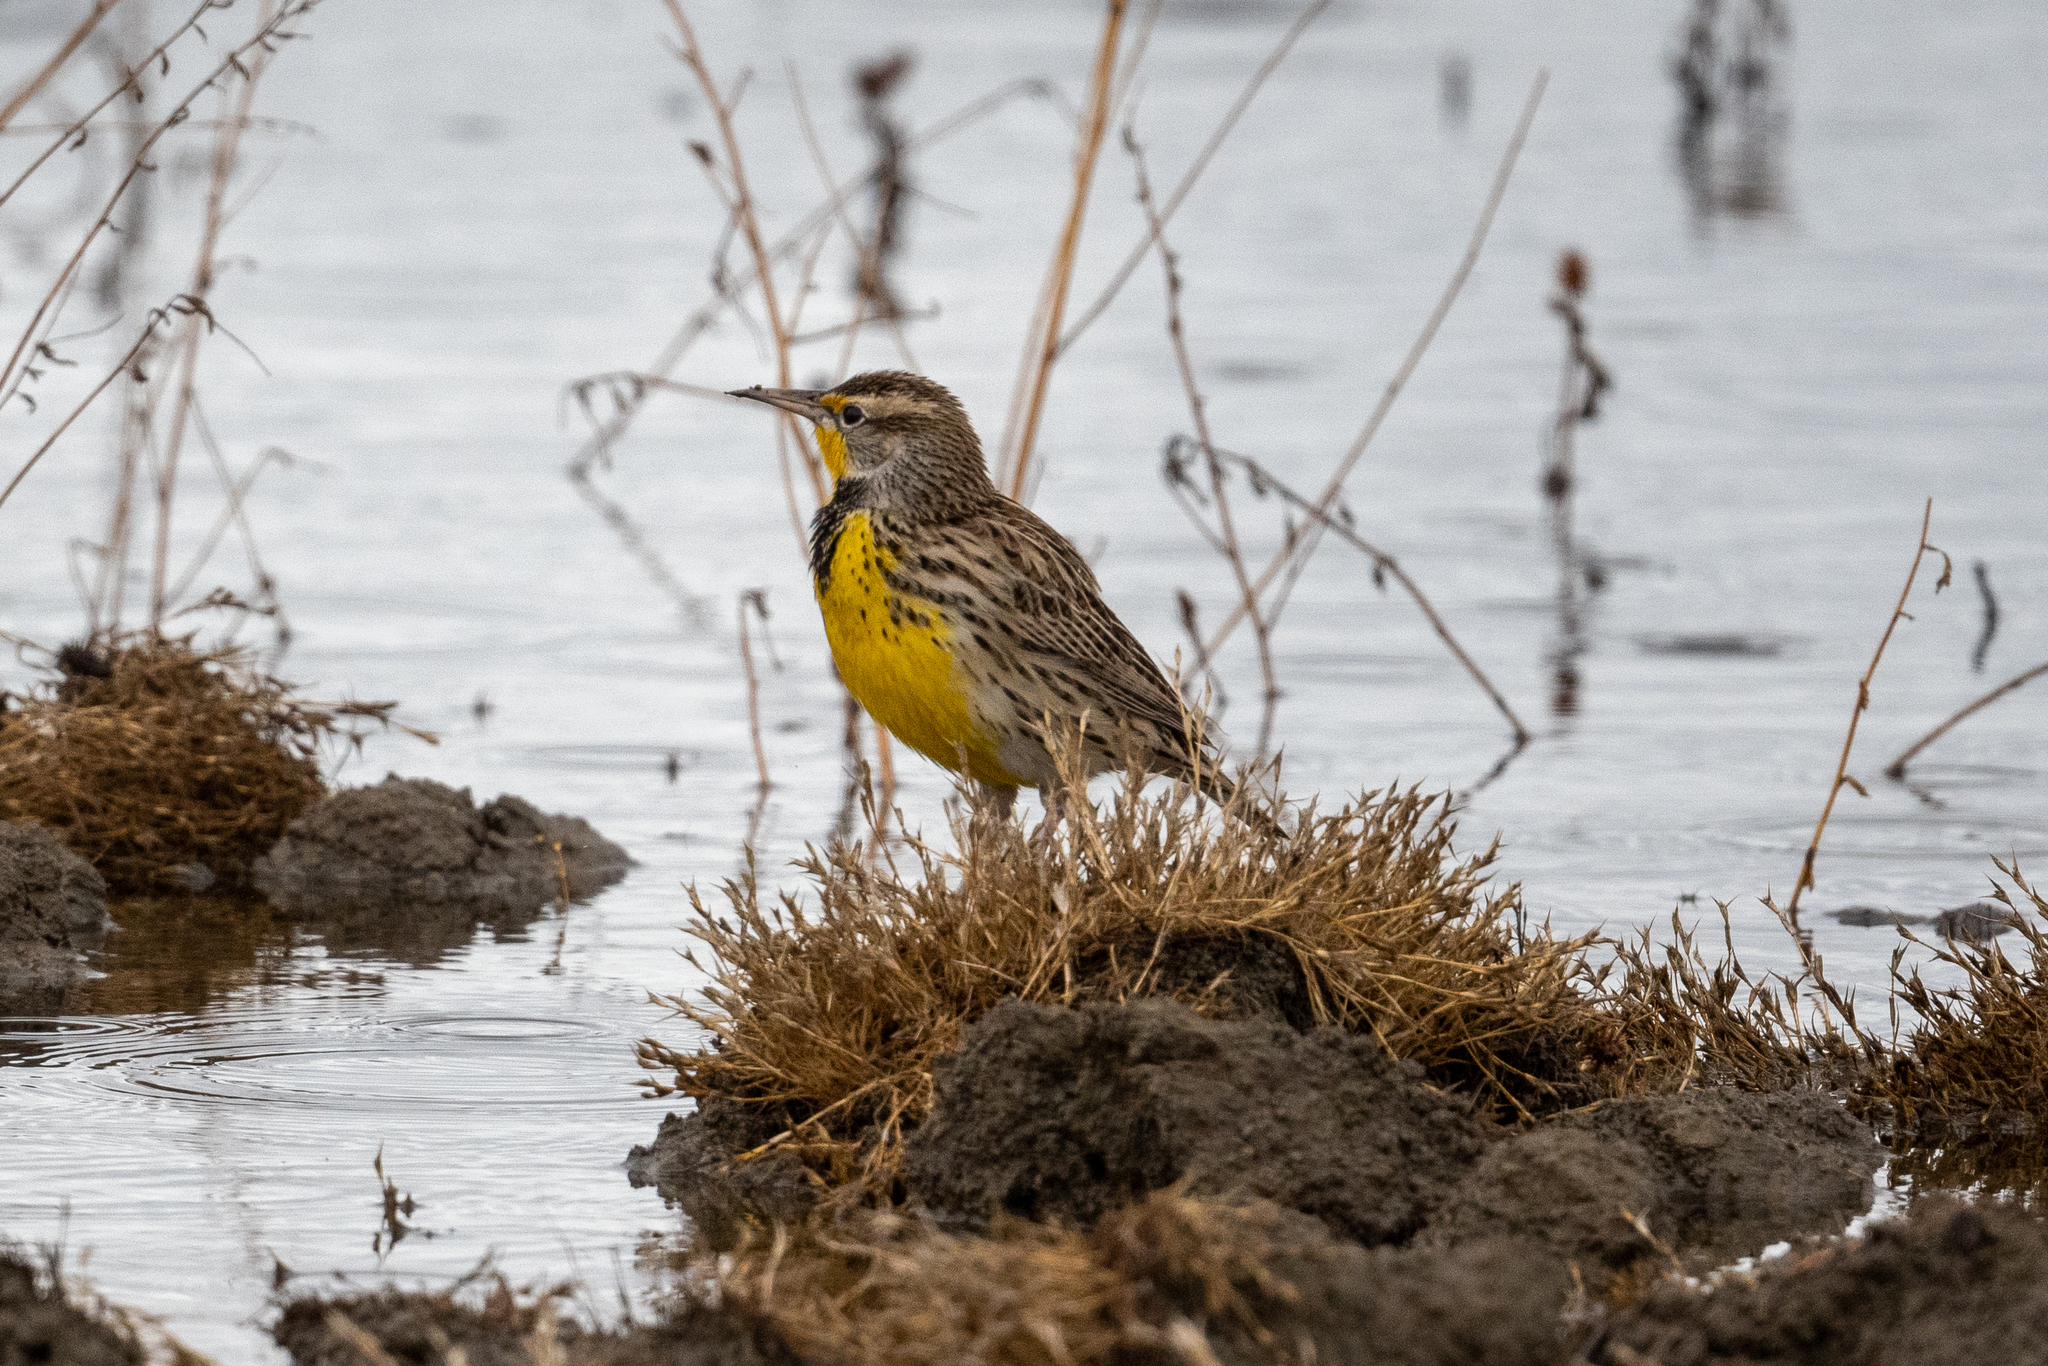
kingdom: Animalia
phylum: Chordata
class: Aves
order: Passeriformes
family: Icteridae
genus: Sturnella
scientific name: Sturnella neglecta
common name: Western meadowlark
